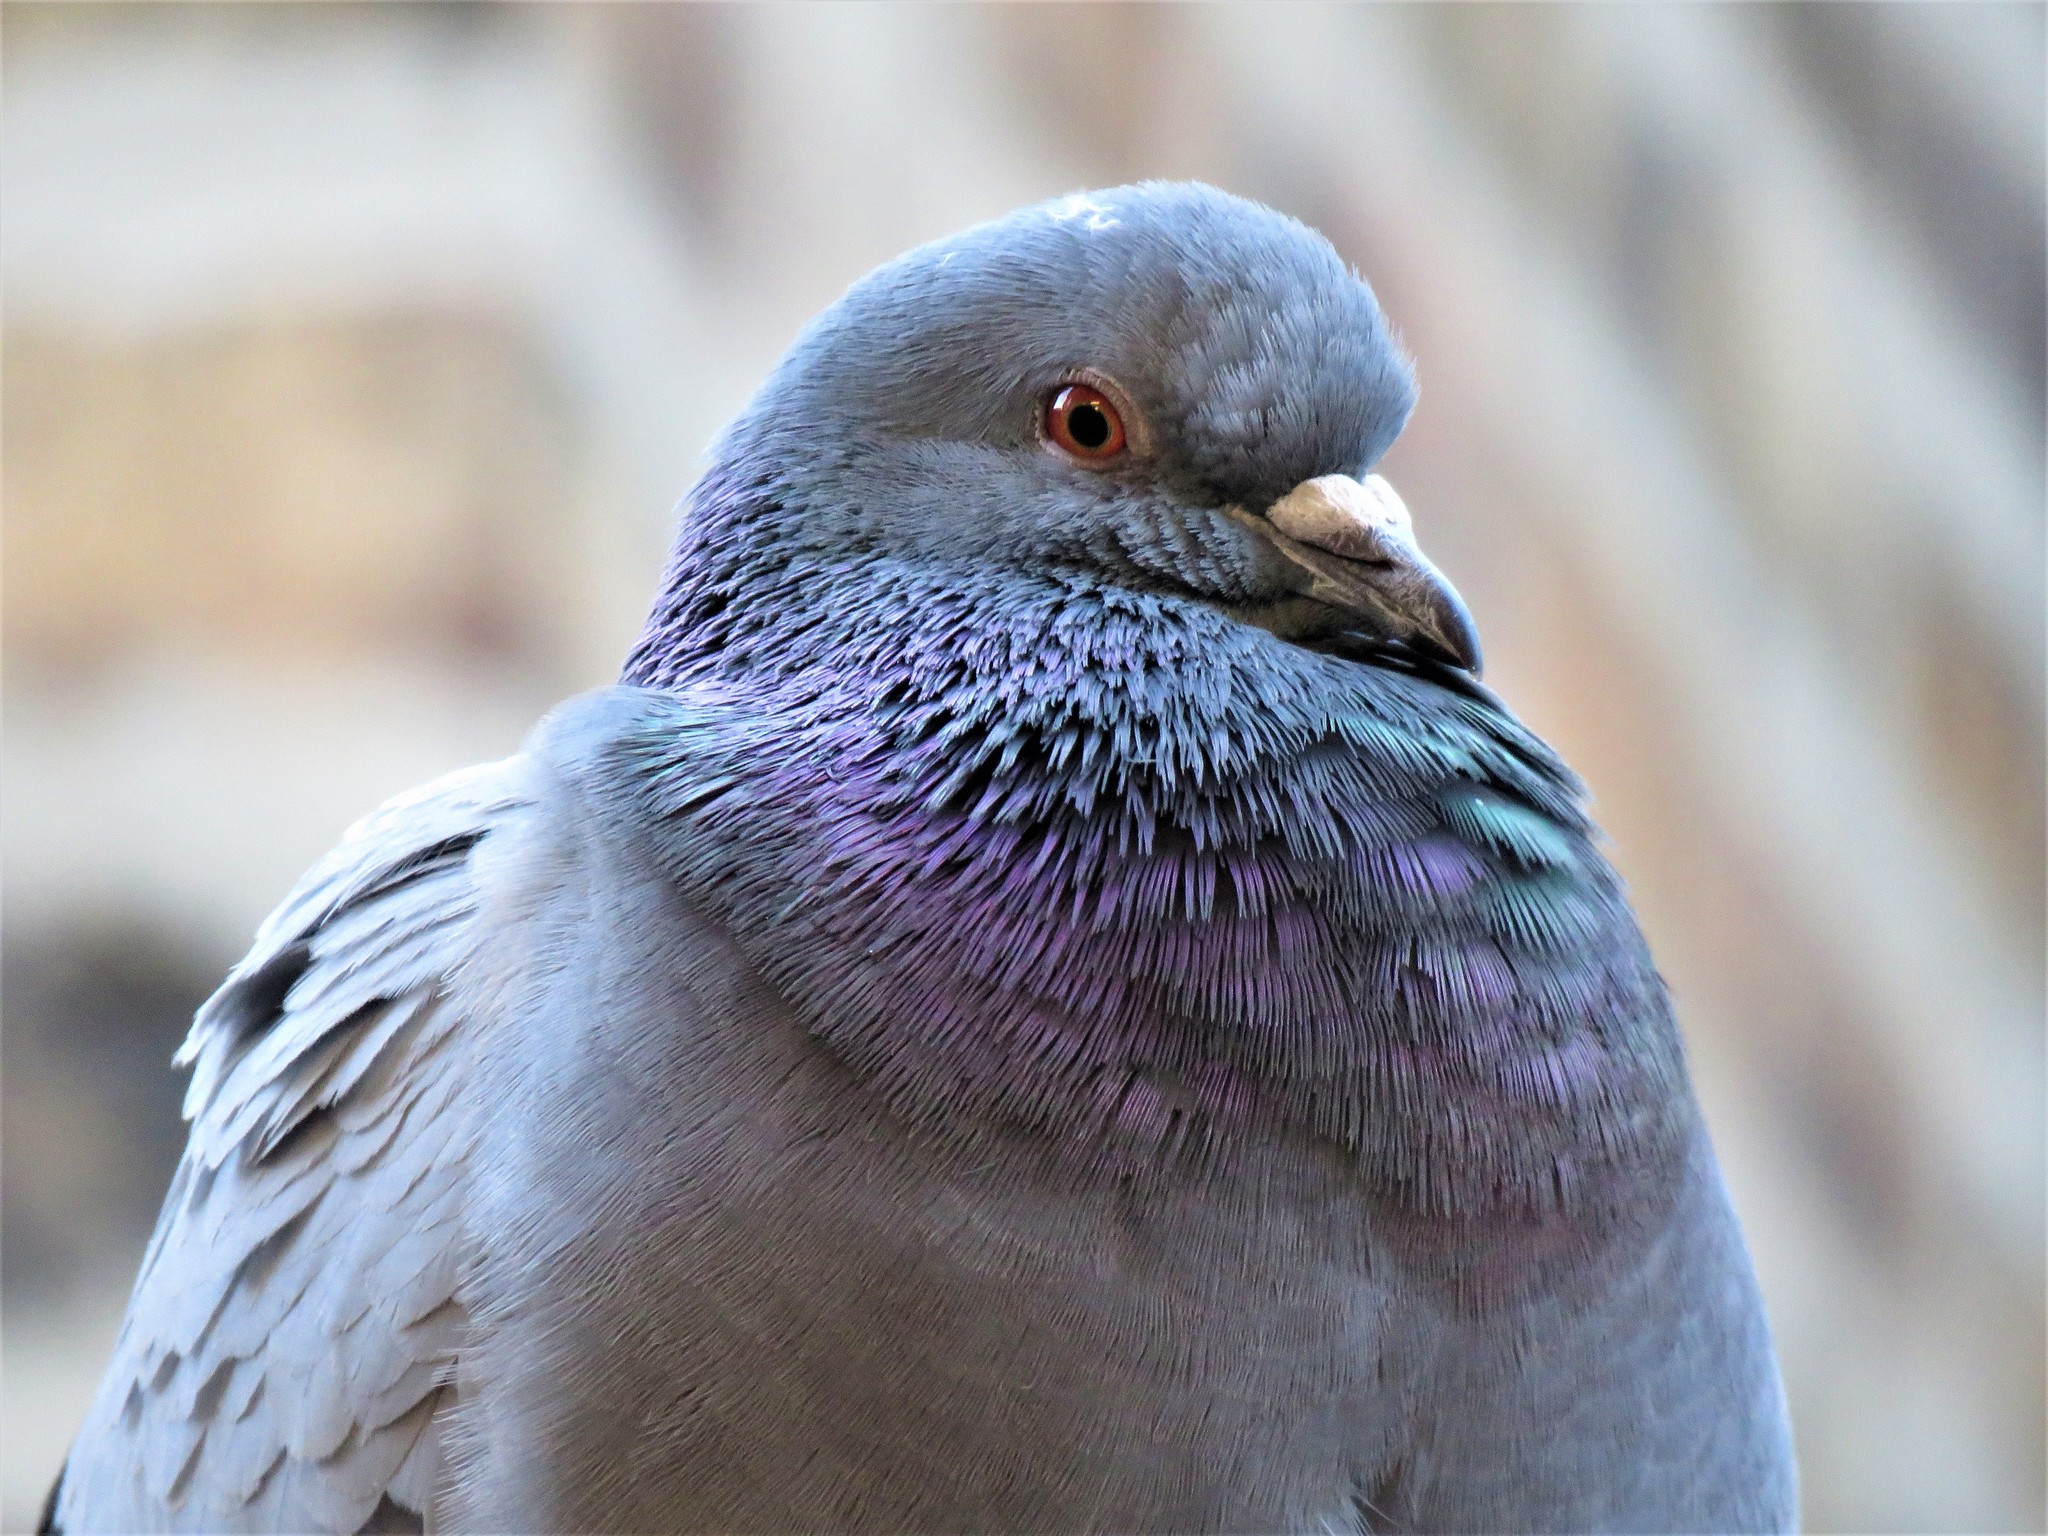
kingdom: Animalia
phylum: Chordata
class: Aves
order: Columbiformes
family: Columbidae
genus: Columba
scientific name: Columba livia
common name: Rock pigeon
